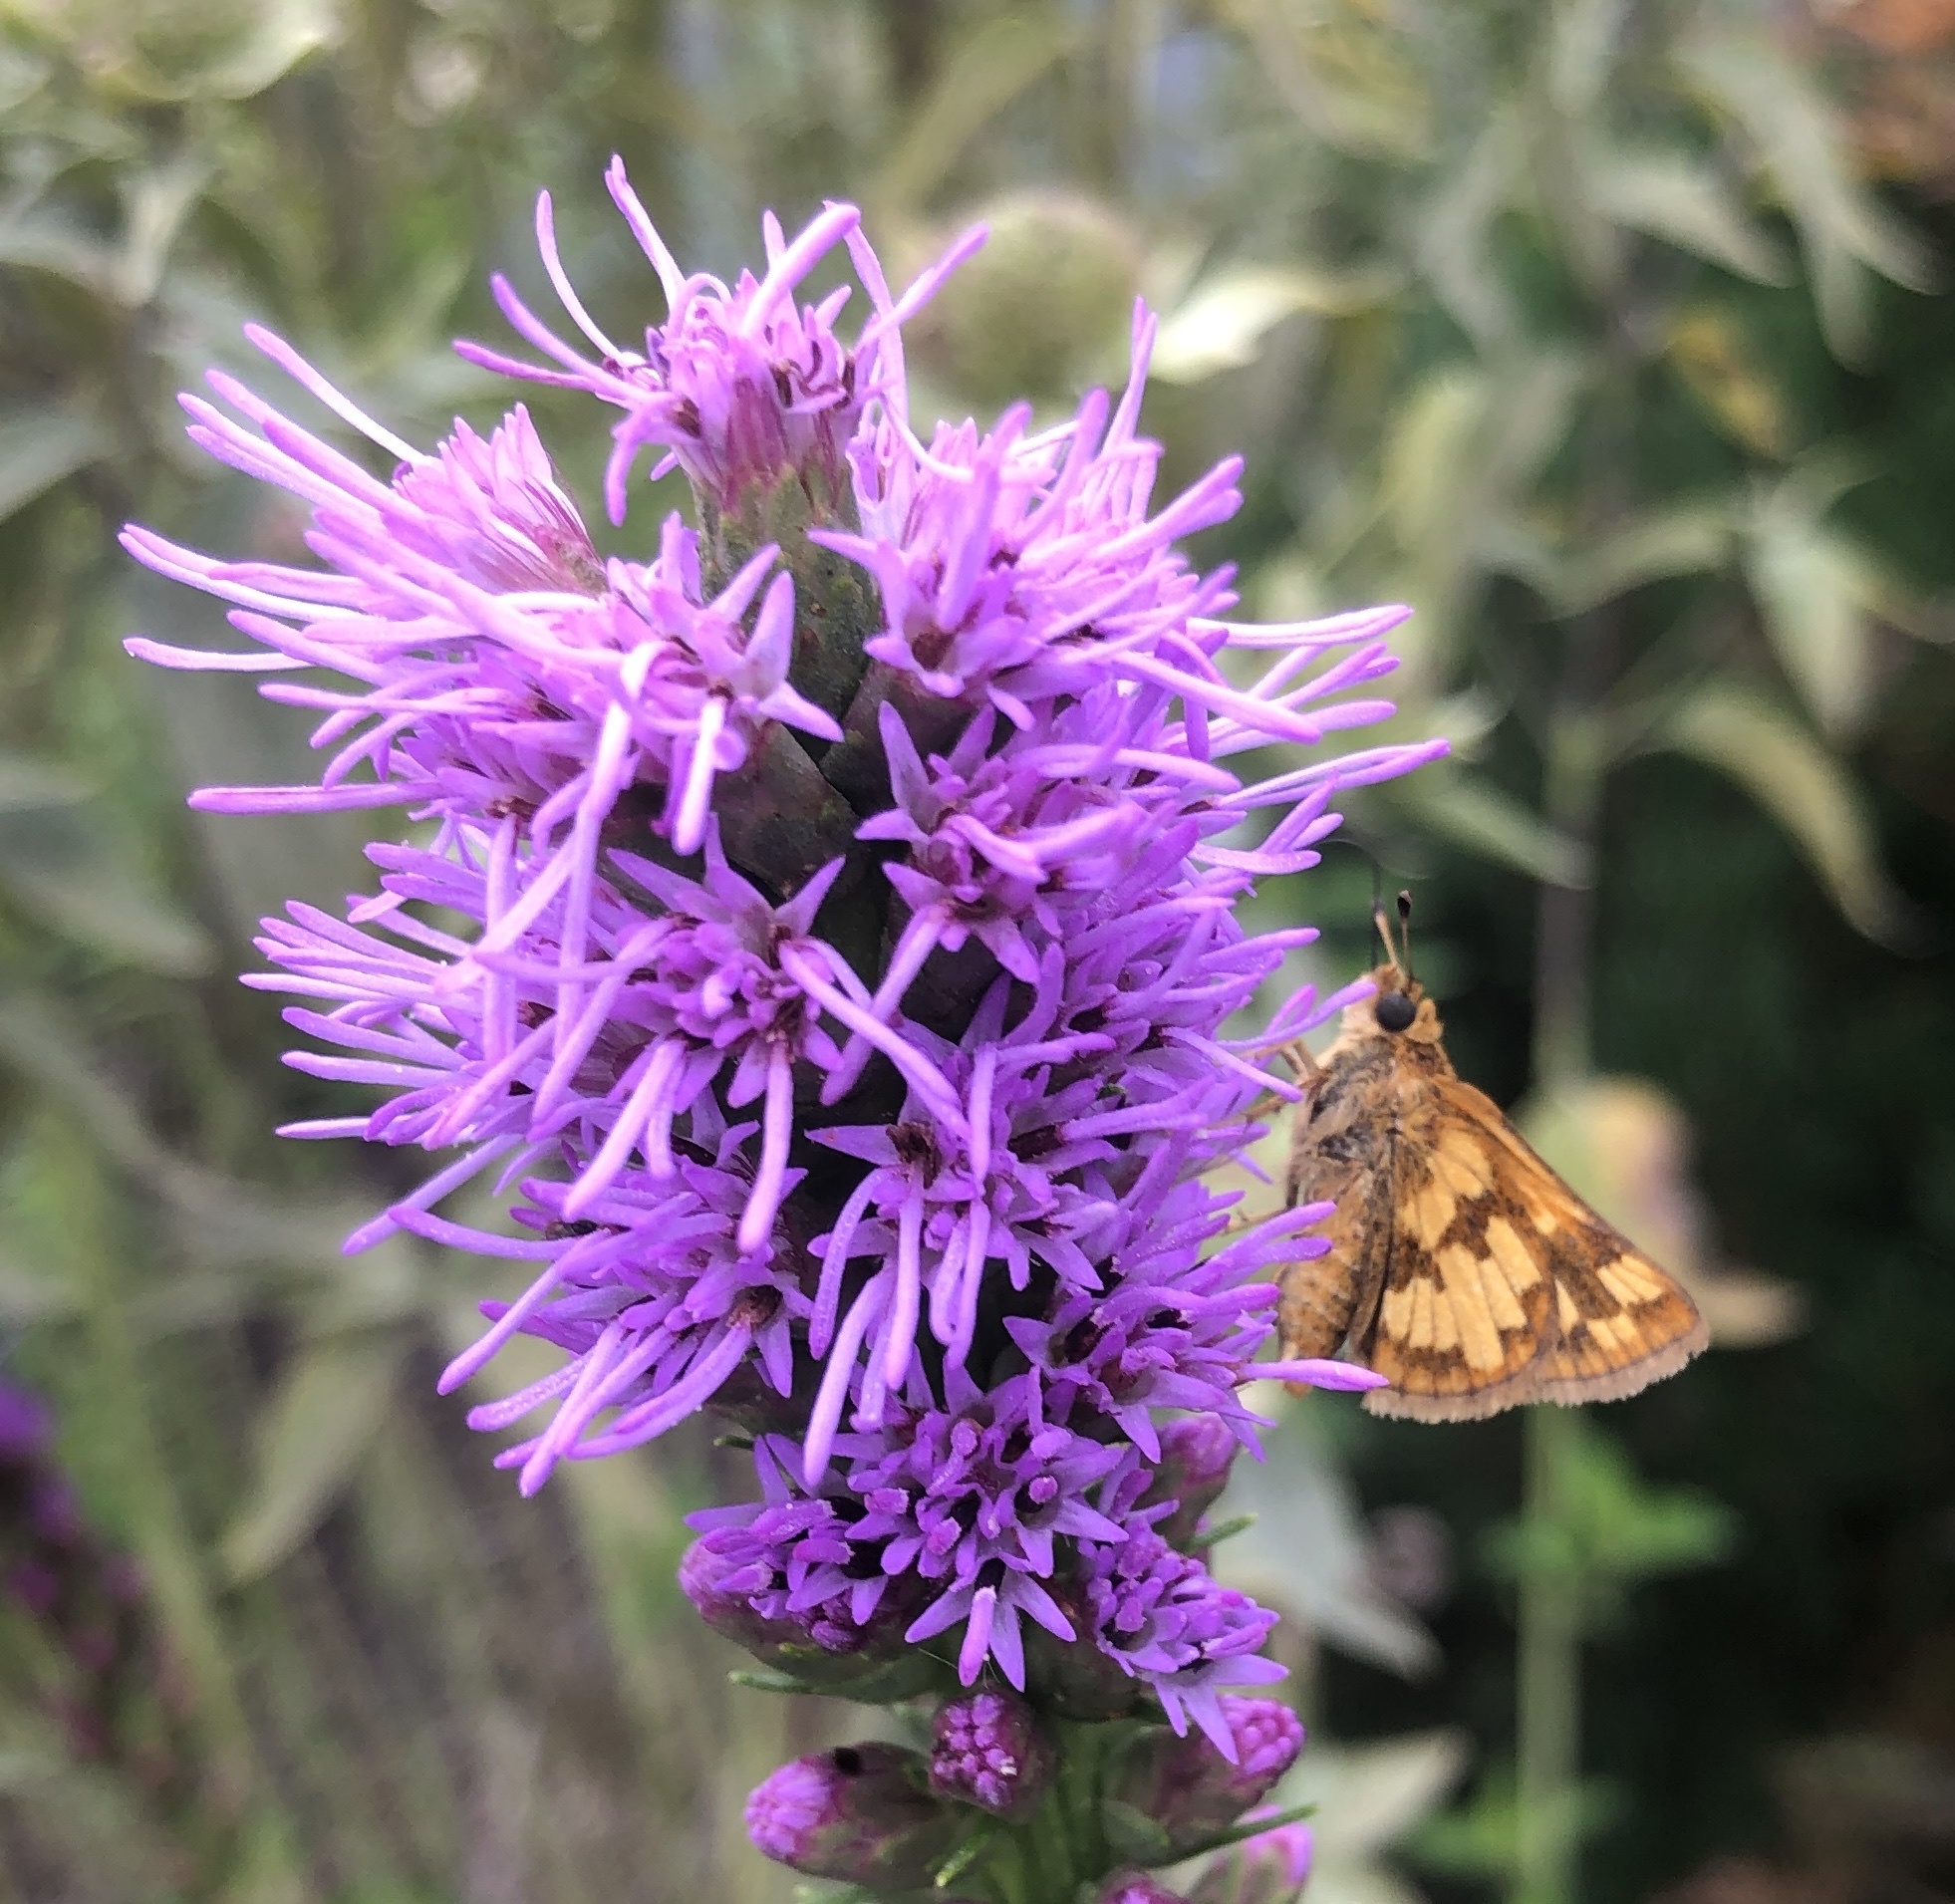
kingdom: Animalia
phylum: Arthropoda
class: Insecta
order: Lepidoptera
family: Hesperiidae
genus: Polites
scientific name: Polites coras
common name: Peck's skipper
